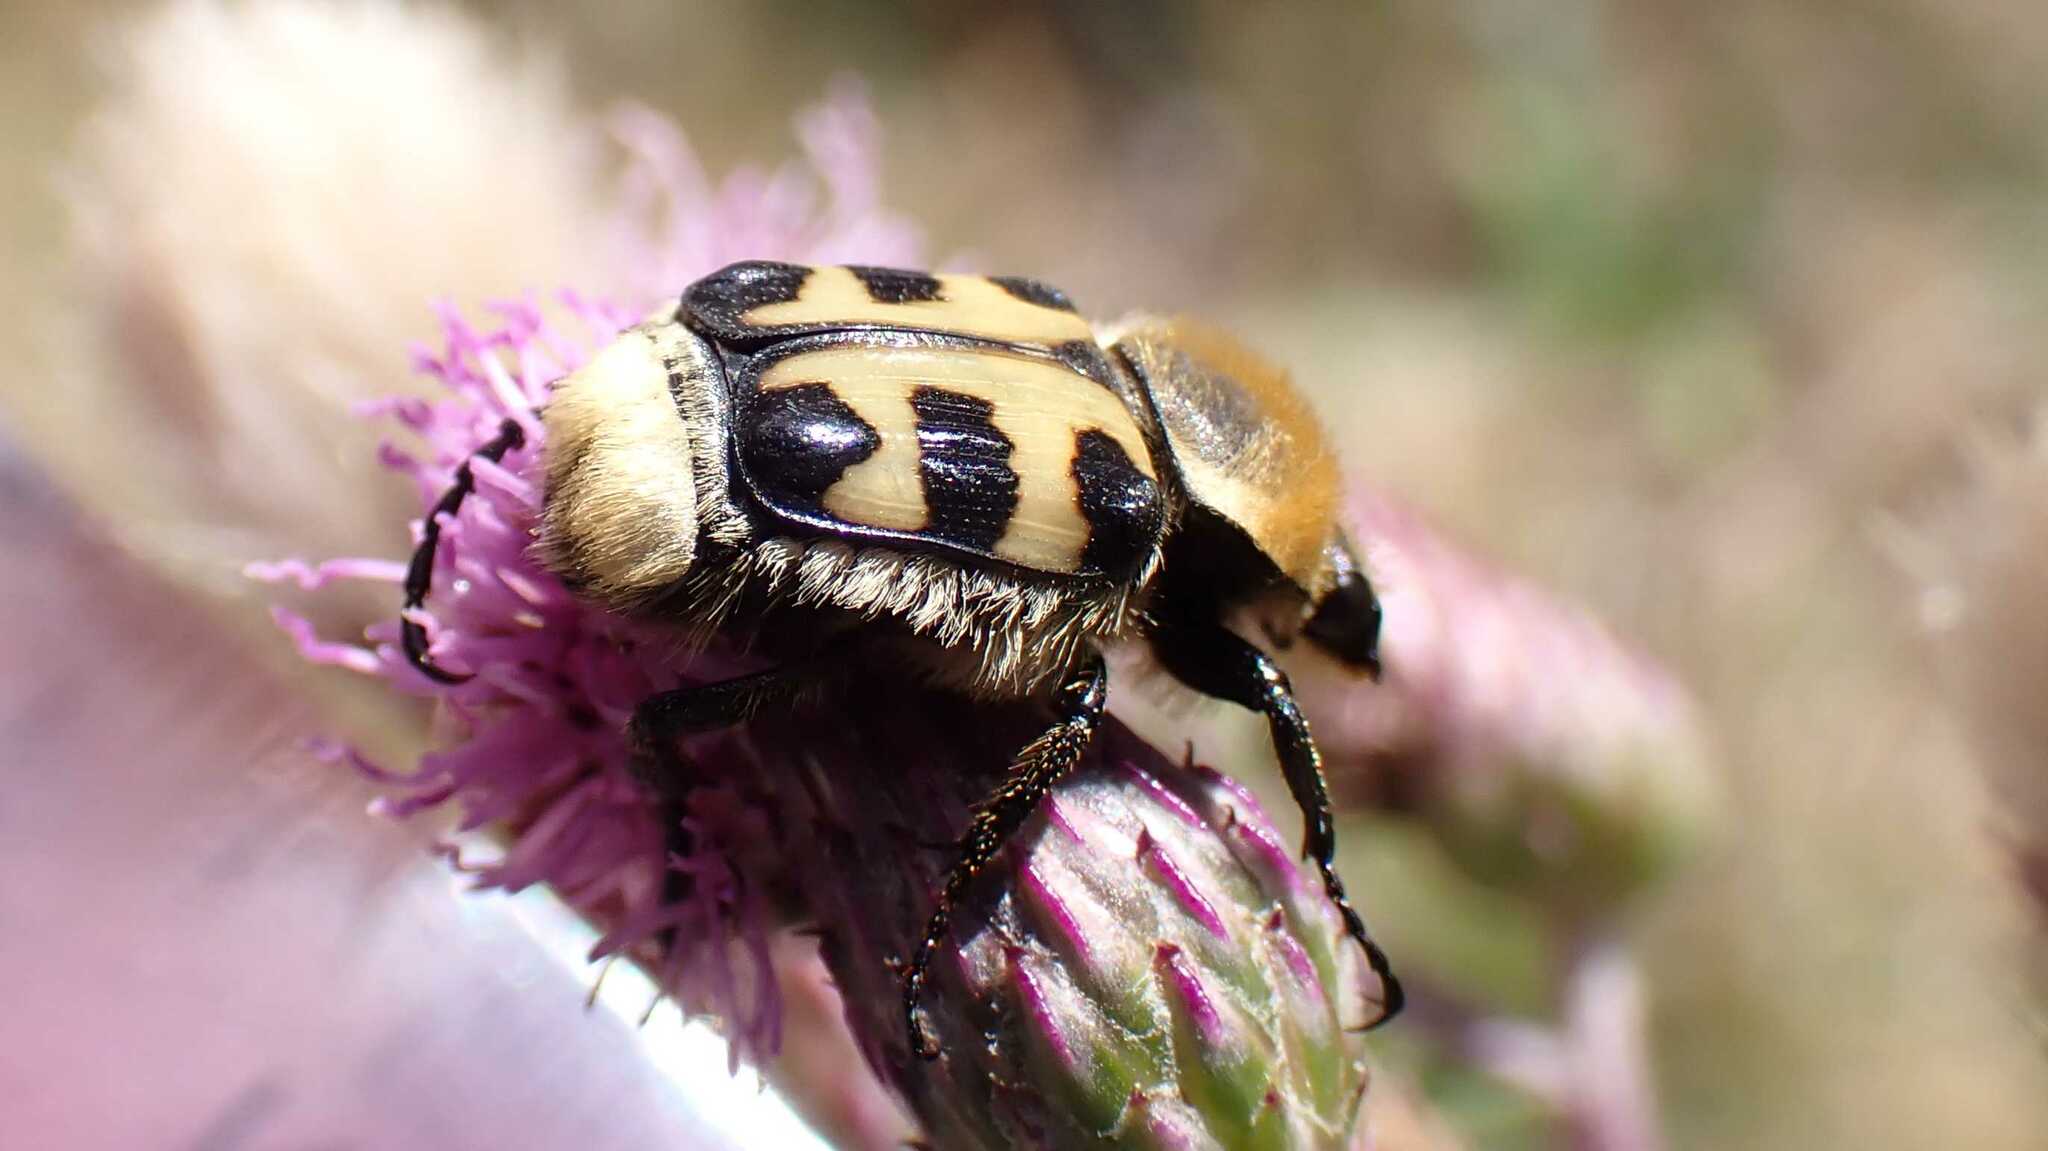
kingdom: Animalia
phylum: Arthropoda
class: Insecta
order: Coleoptera
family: Scarabaeidae
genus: Trichius
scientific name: Trichius gallicus
